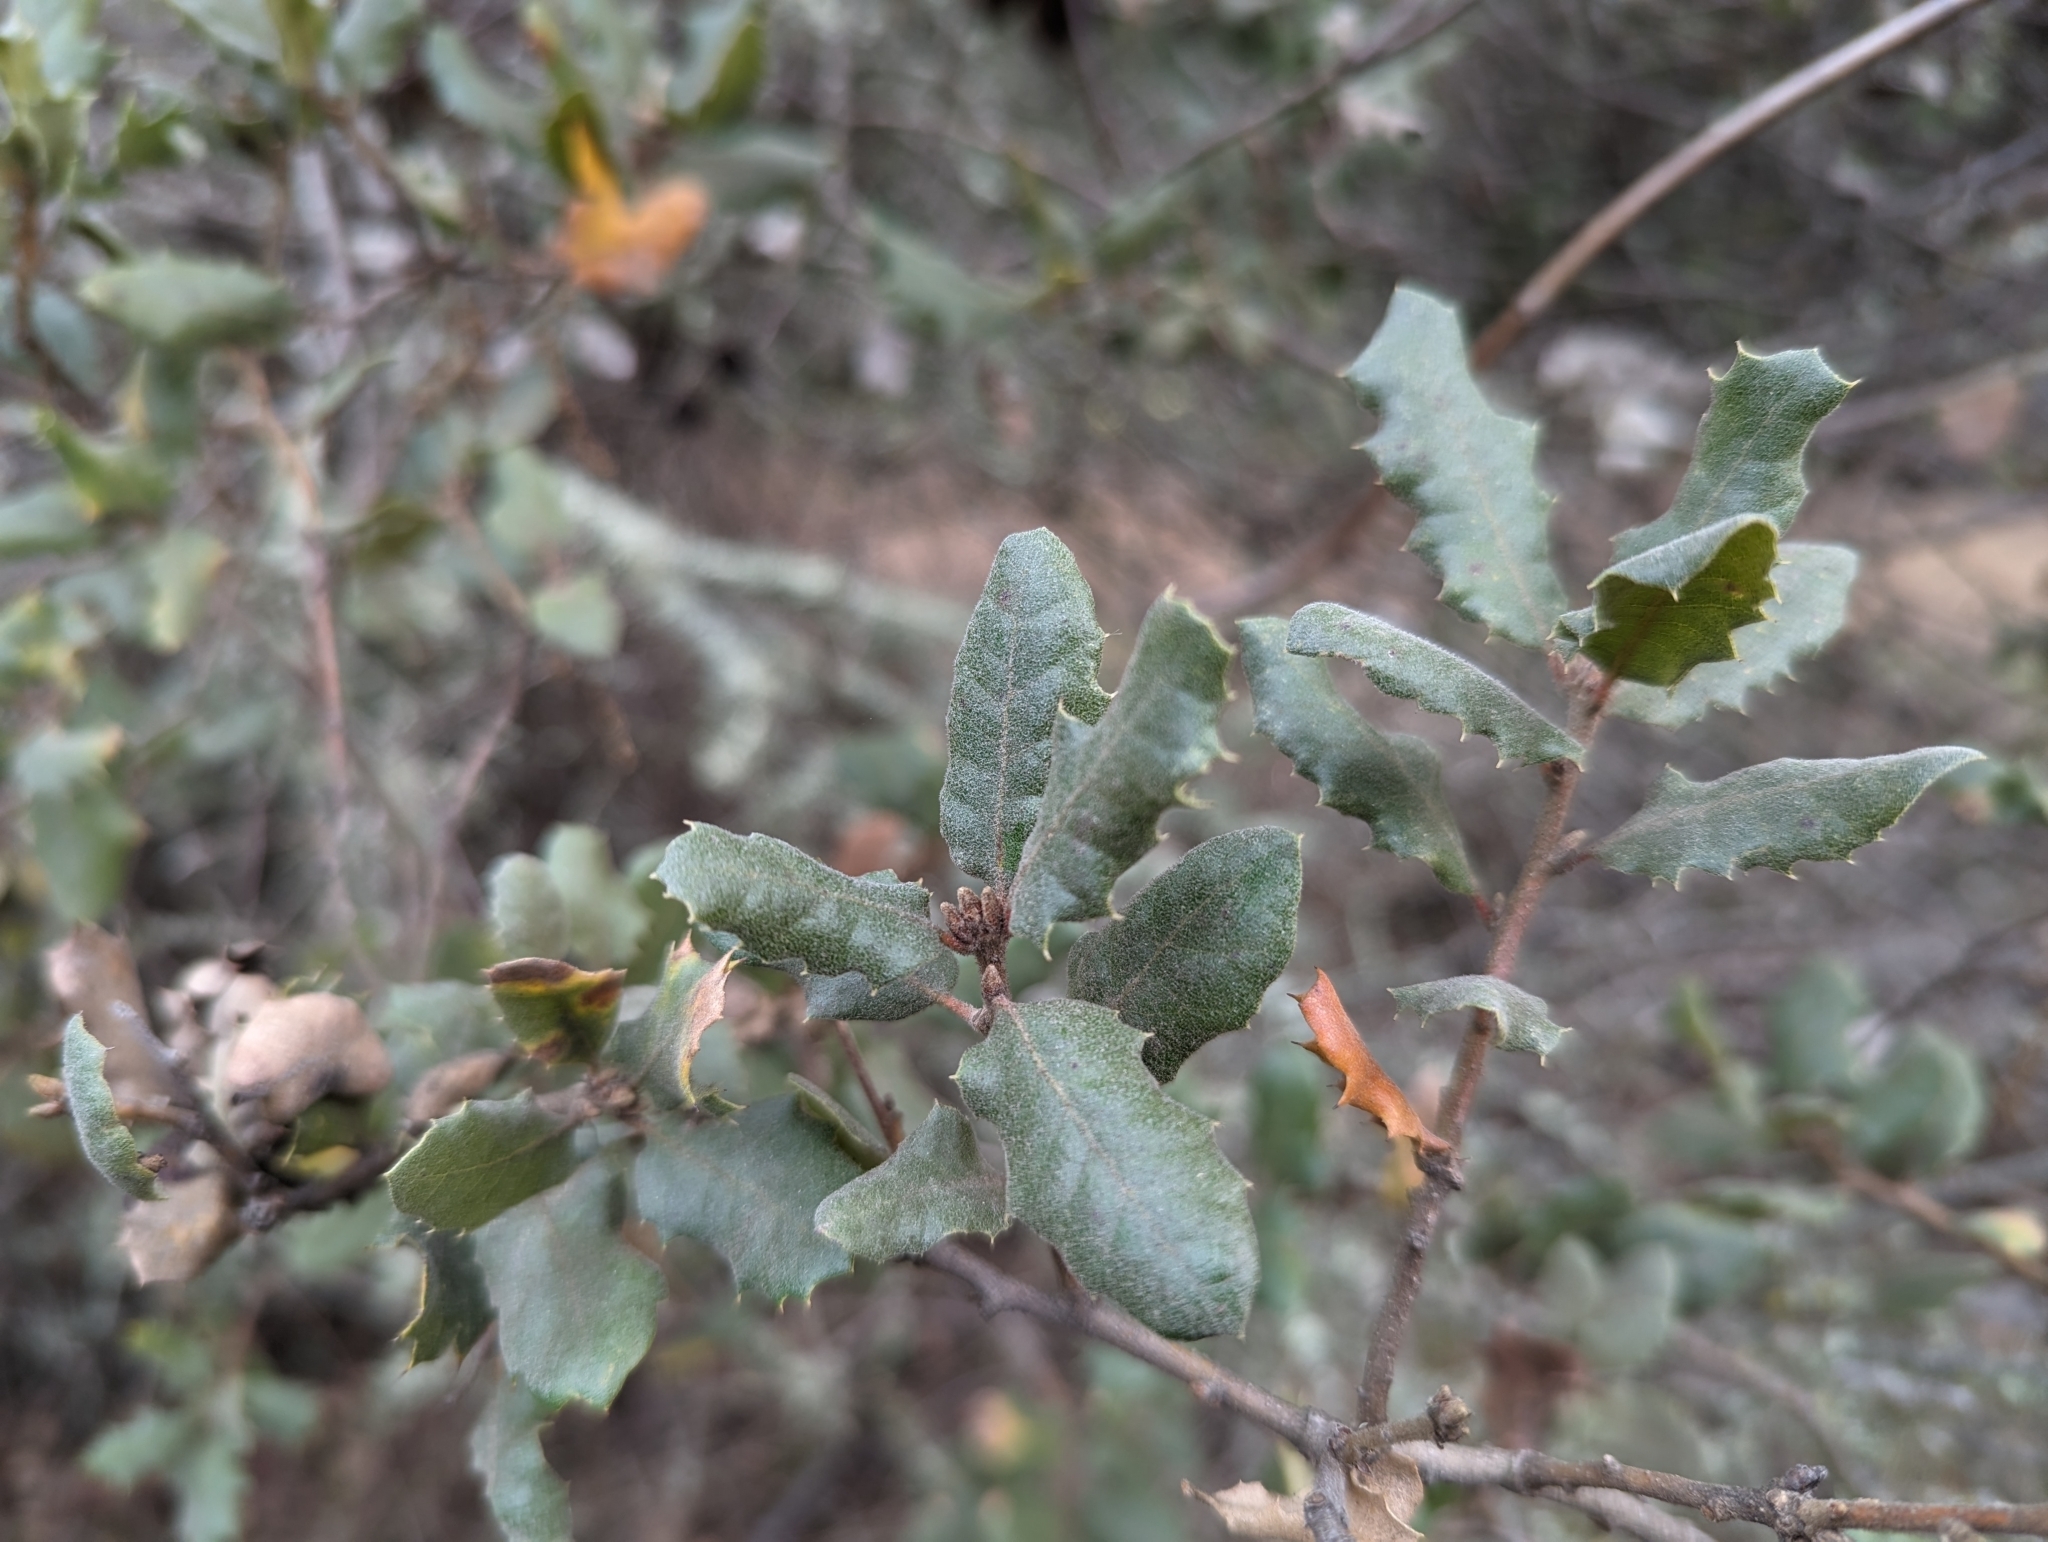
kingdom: Animalia
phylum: Arthropoda
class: Insecta
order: Hymenoptera
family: Cynipidae
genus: Burnettweldia
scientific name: Burnettweldia
